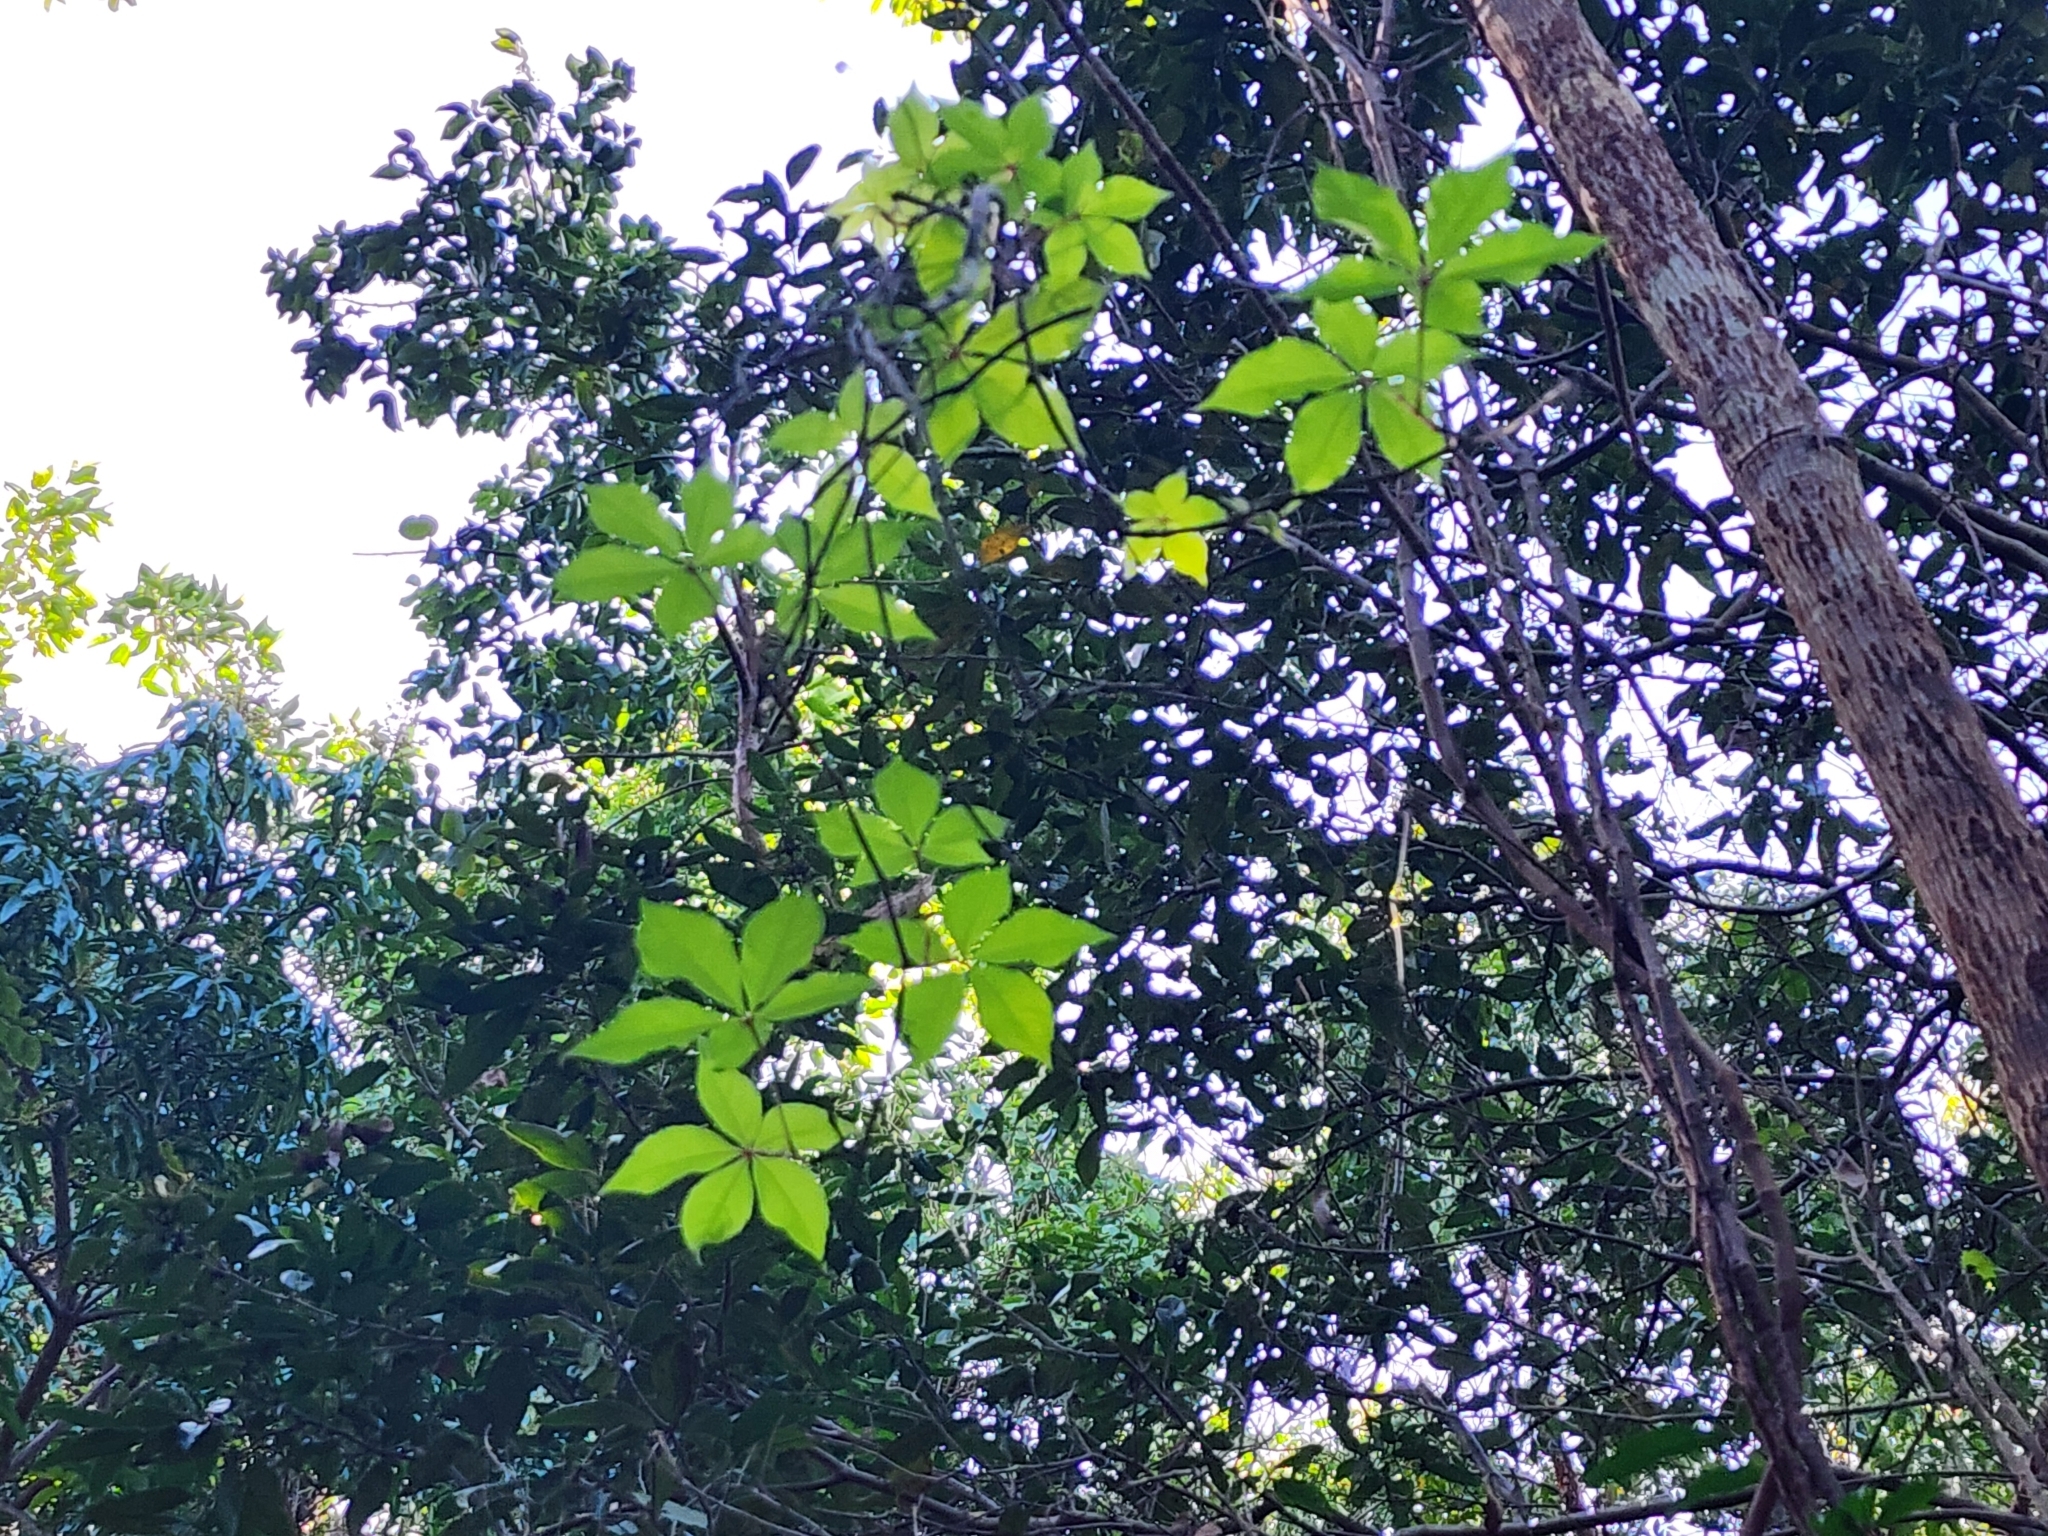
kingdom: Plantae
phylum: Tracheophyta
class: Magnoliopsida
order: Vitales
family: Vitaceae
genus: Parthenocissus
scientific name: Parthenocissus quinquefolia
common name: Virginia-creeper
